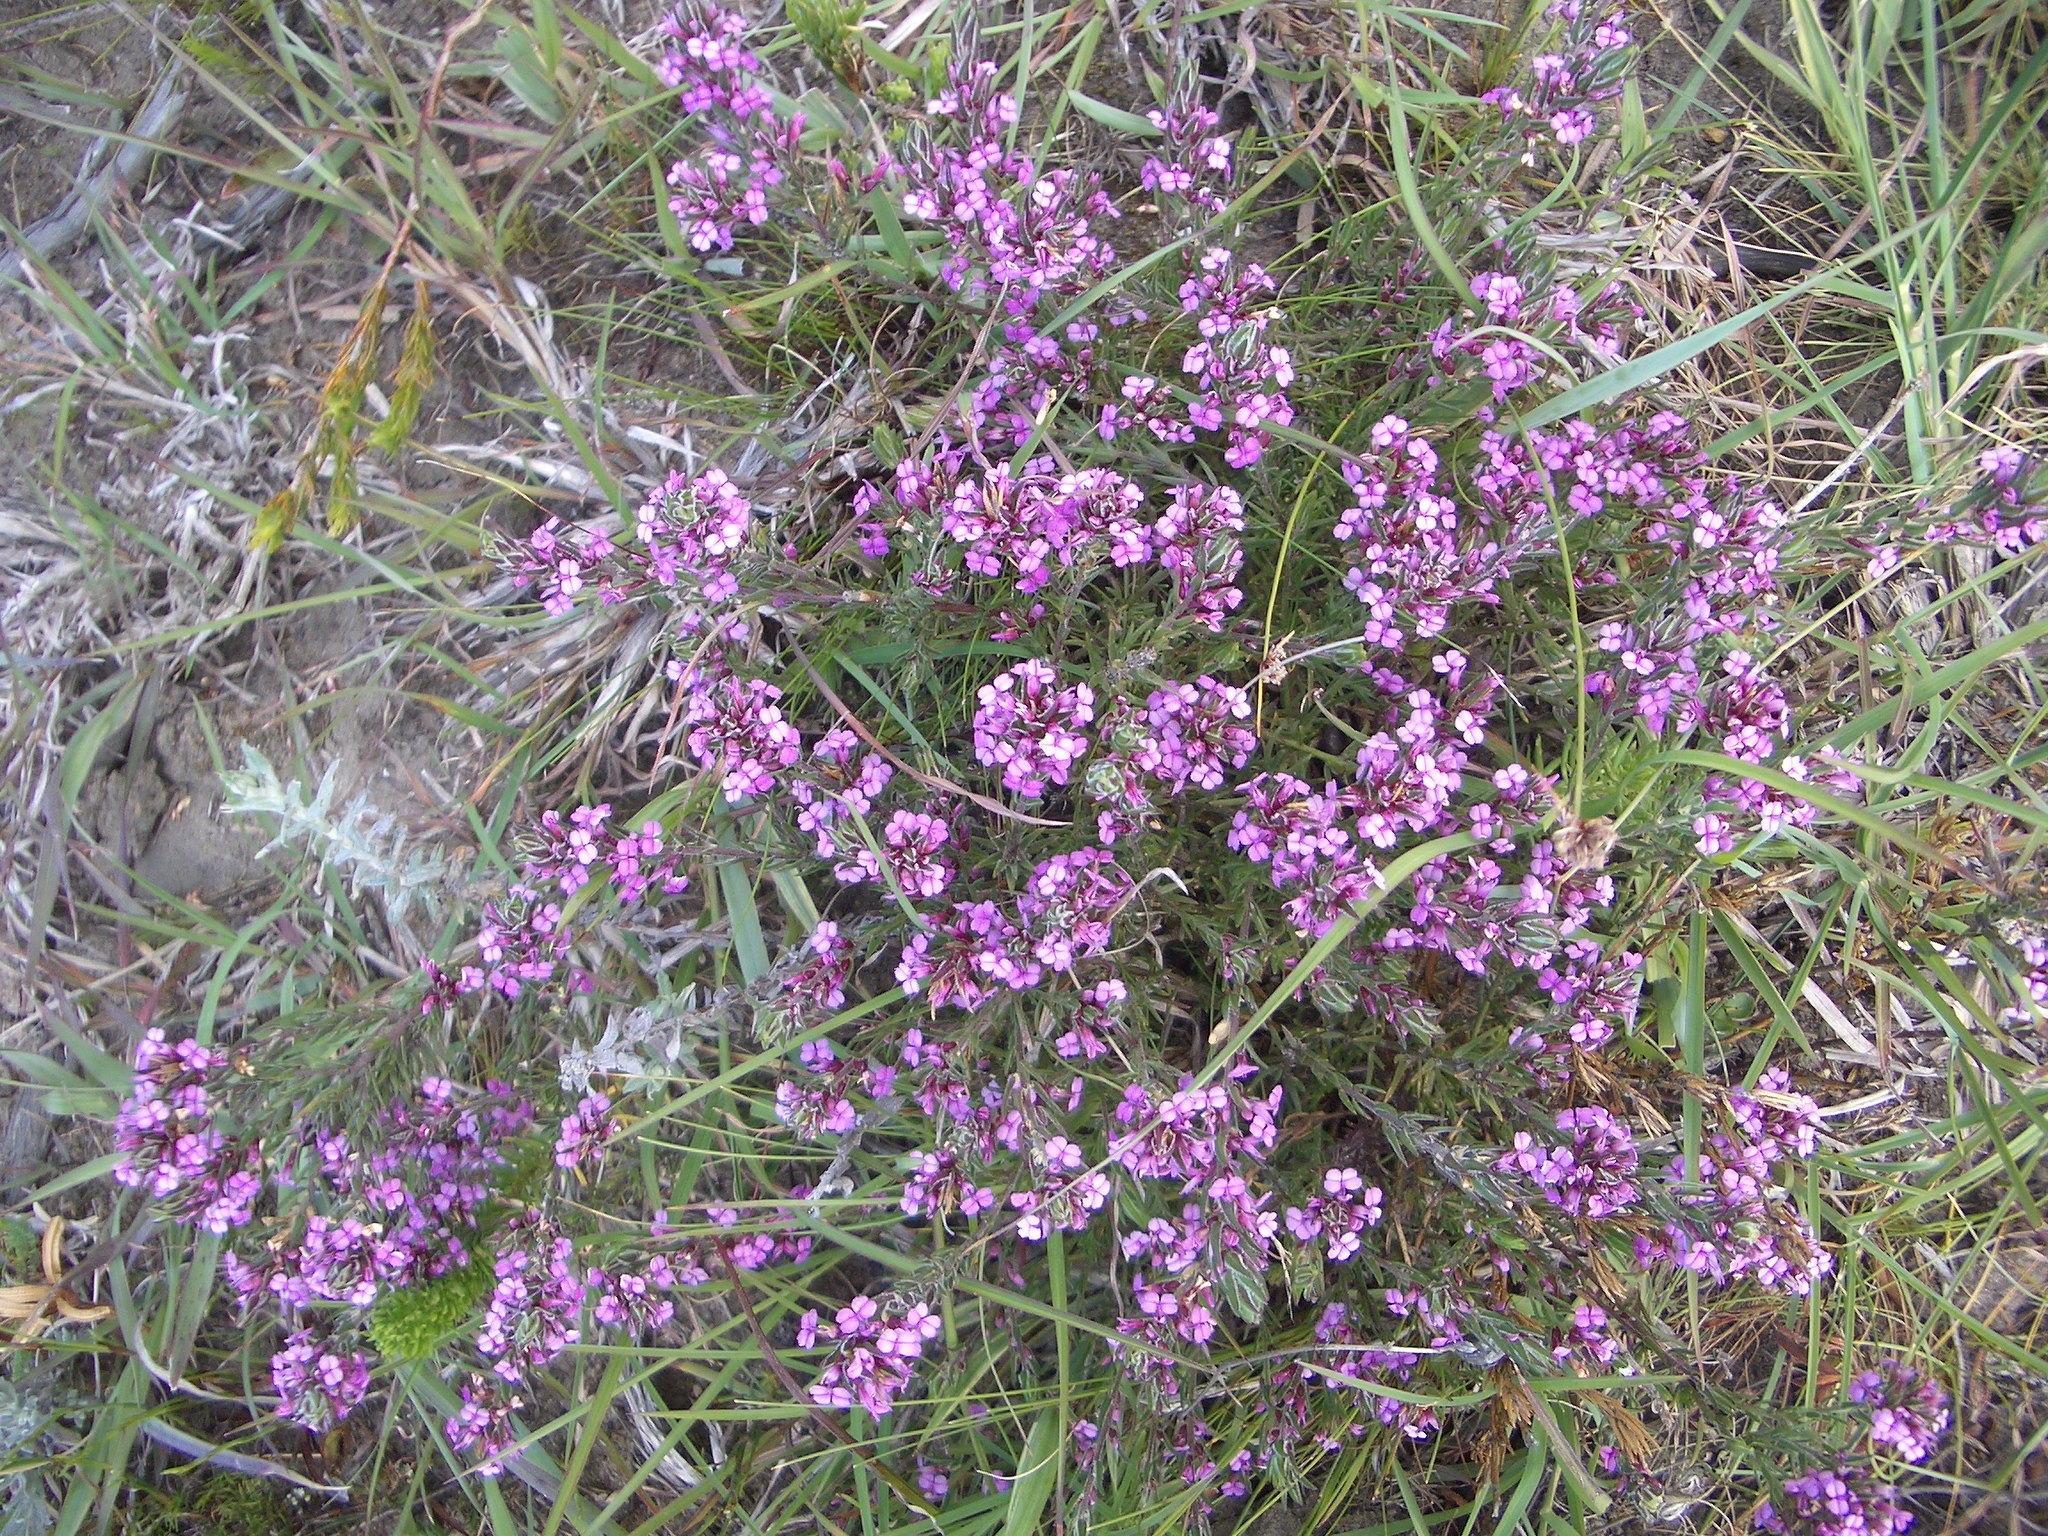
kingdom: Plantae
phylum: Tracheophyta
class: Magnoliopsida
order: Fabales
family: Polygalaceae
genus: Muraltia
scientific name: Muraltia knysnaensis
